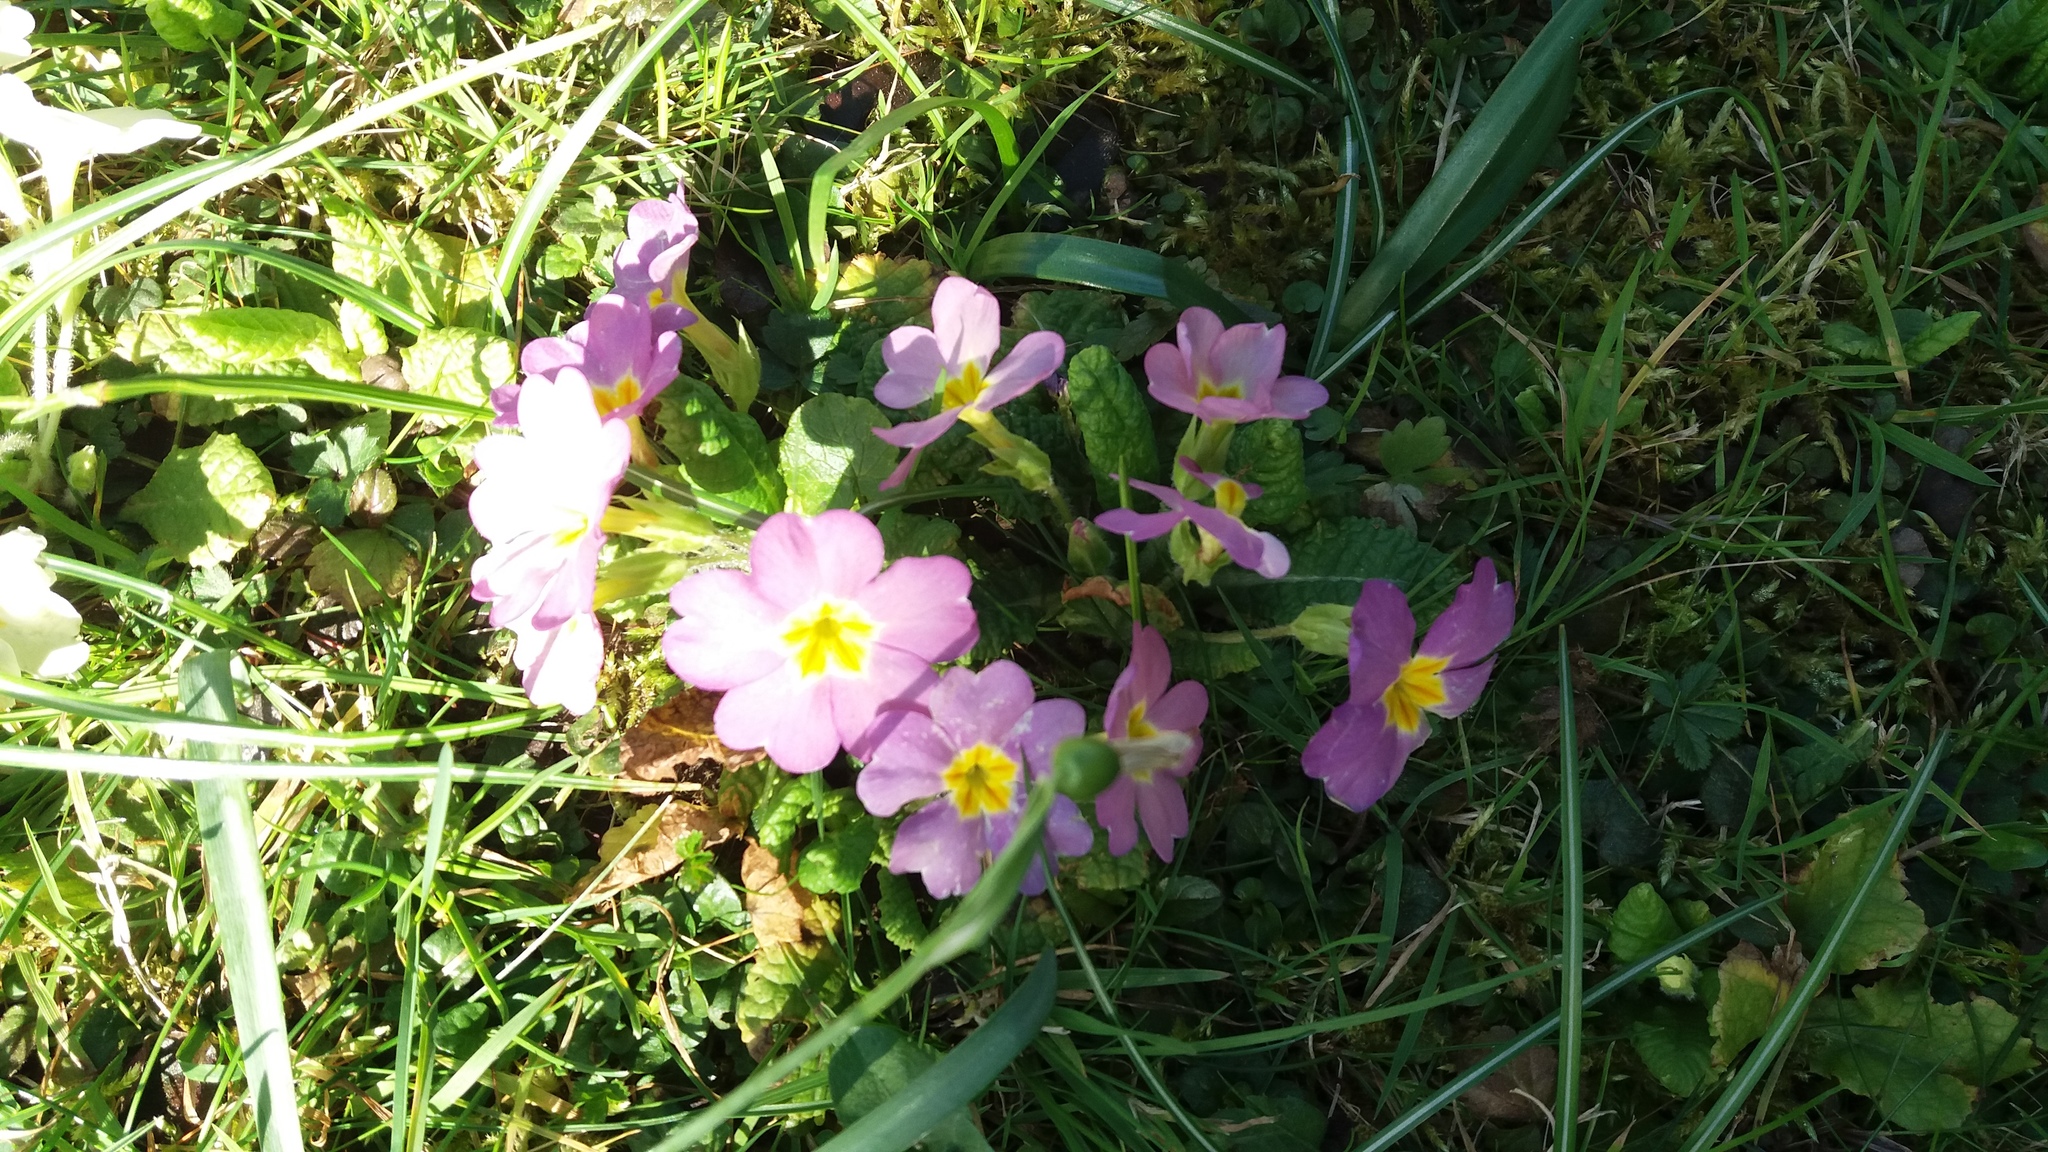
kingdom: Plantae
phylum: Tracheophyta
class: Magnoliopsida
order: Ericales
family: Primulaceae
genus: Primula
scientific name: Primula vulgaris
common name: Primrose
